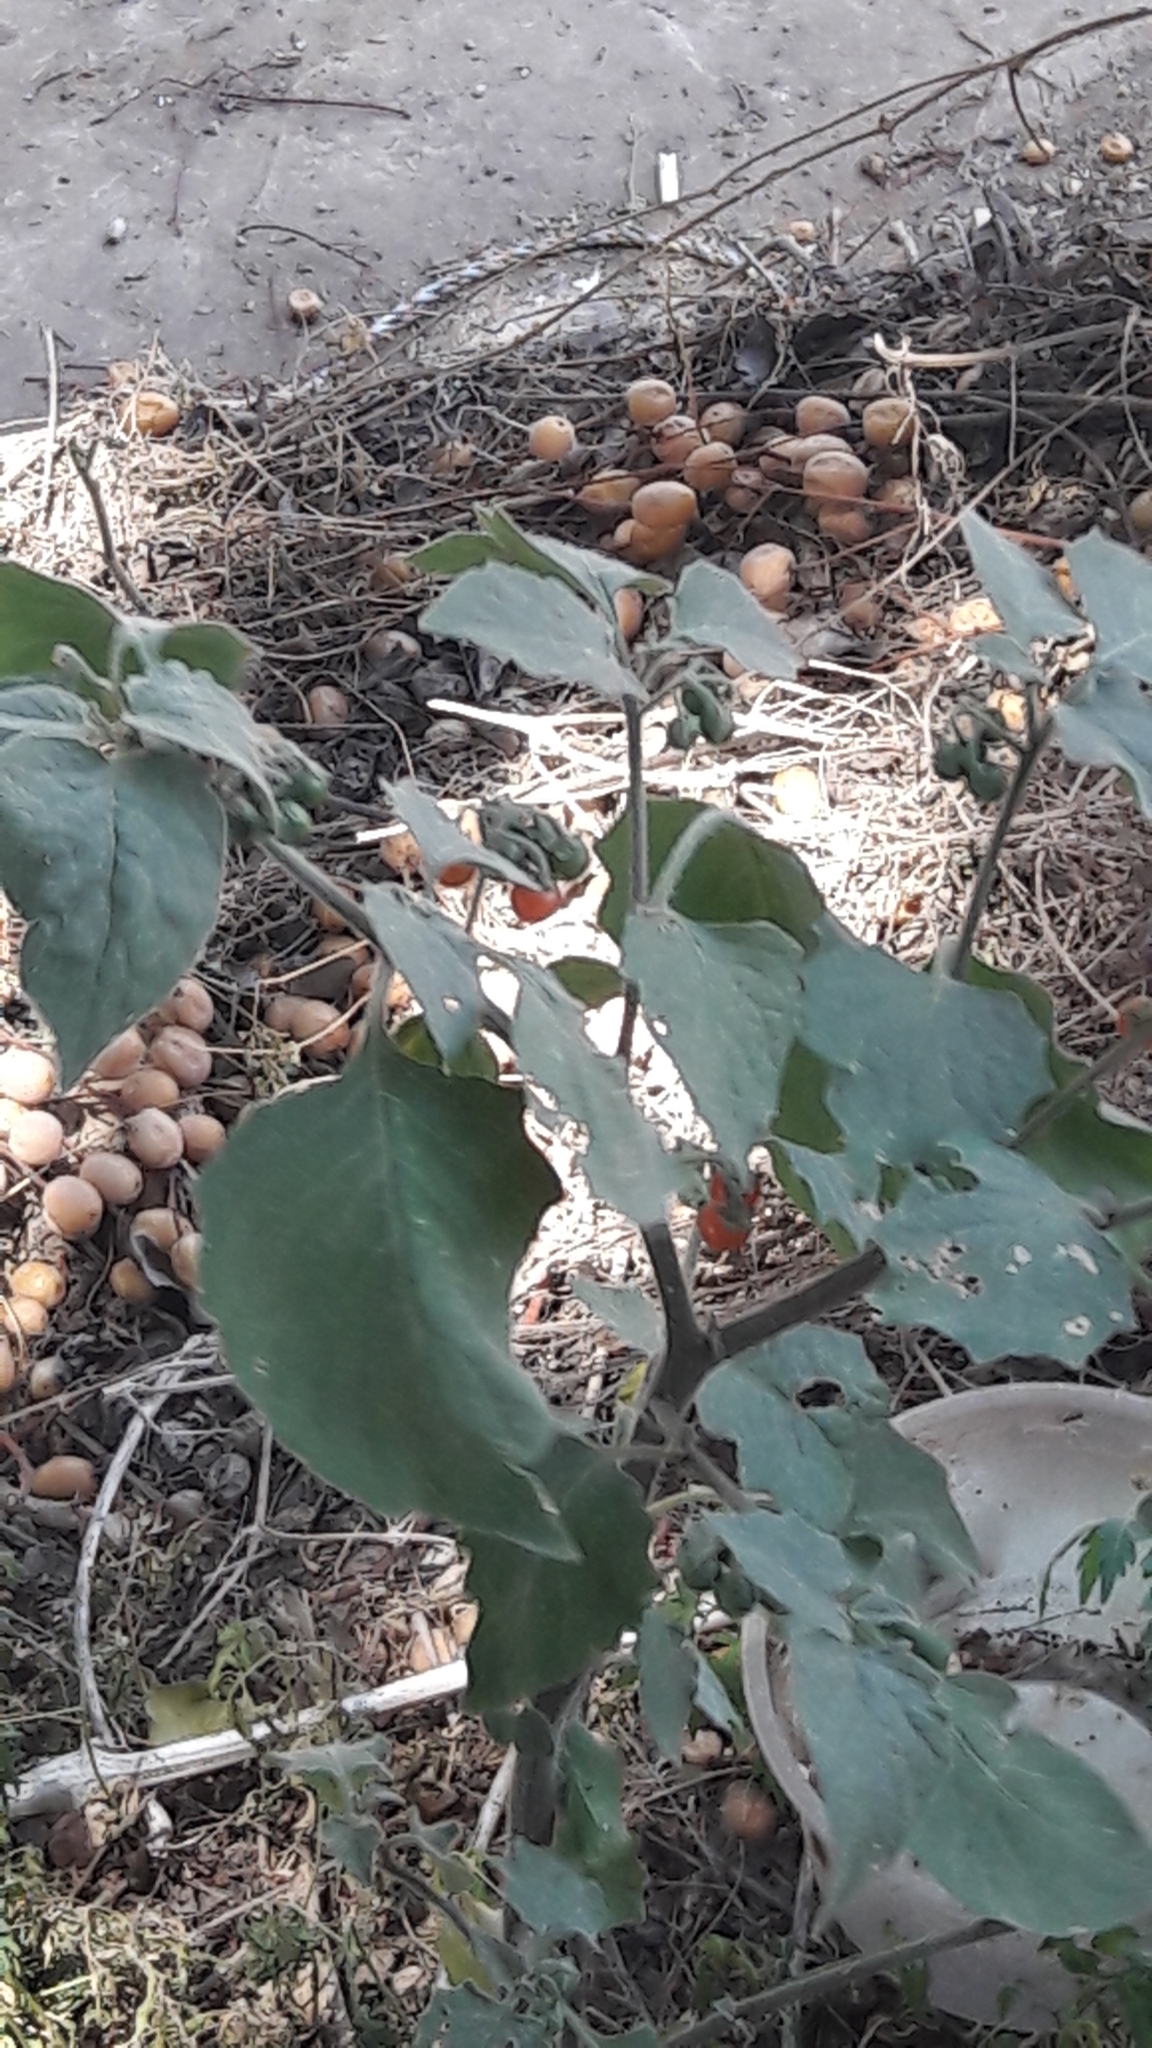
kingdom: Plantae
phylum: Tracheophyta
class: Magnoliopsida
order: Solanales
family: Solanaceae
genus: Solanum
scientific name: Solanum villosum
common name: Red nightshade
